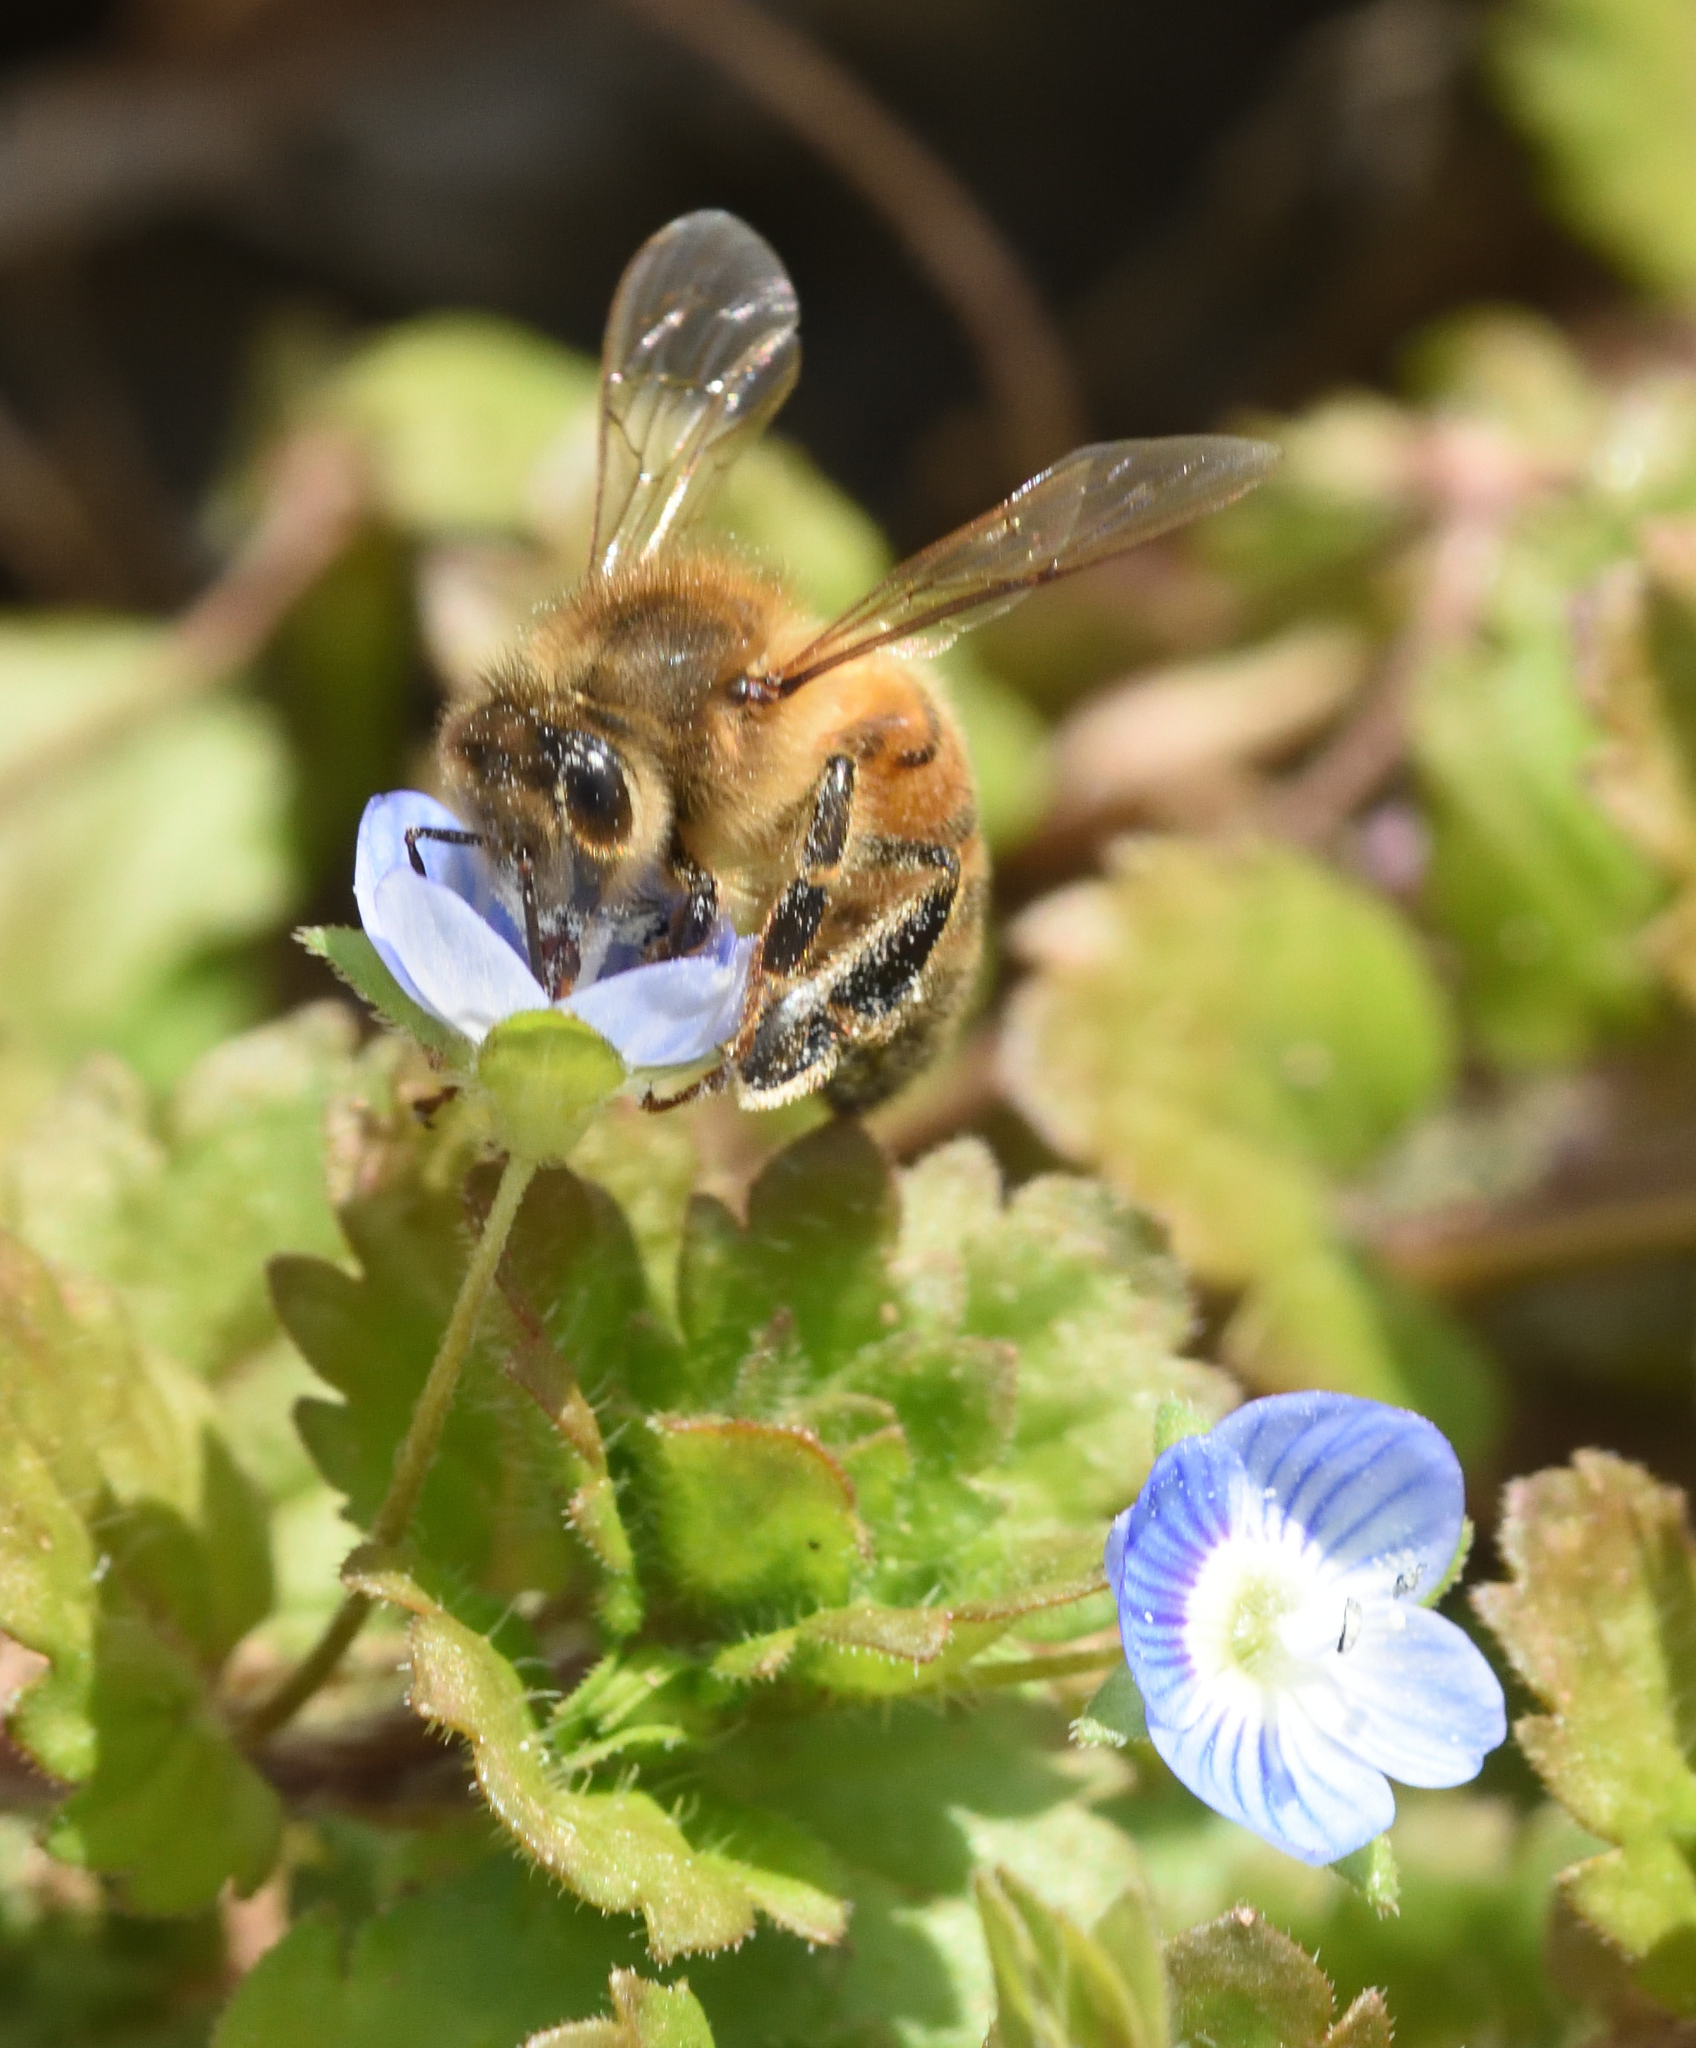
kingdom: Animalia
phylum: Arthropoda
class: Insecta
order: Hymenoptera
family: Apidae
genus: Apis
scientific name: Apis mellifera
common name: Honey bee
